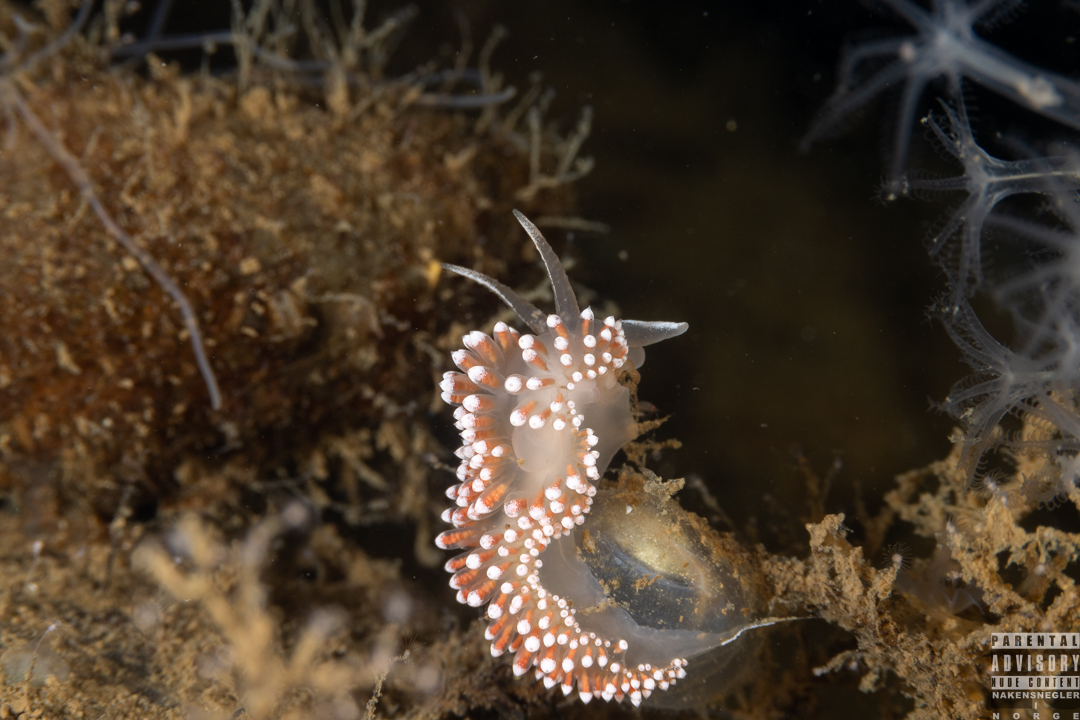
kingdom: Animalia
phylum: Mollusca
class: Gastropoda
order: Nudibranchia
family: Coryphellidae
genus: Coryphella
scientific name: Coryphella verrucosa
